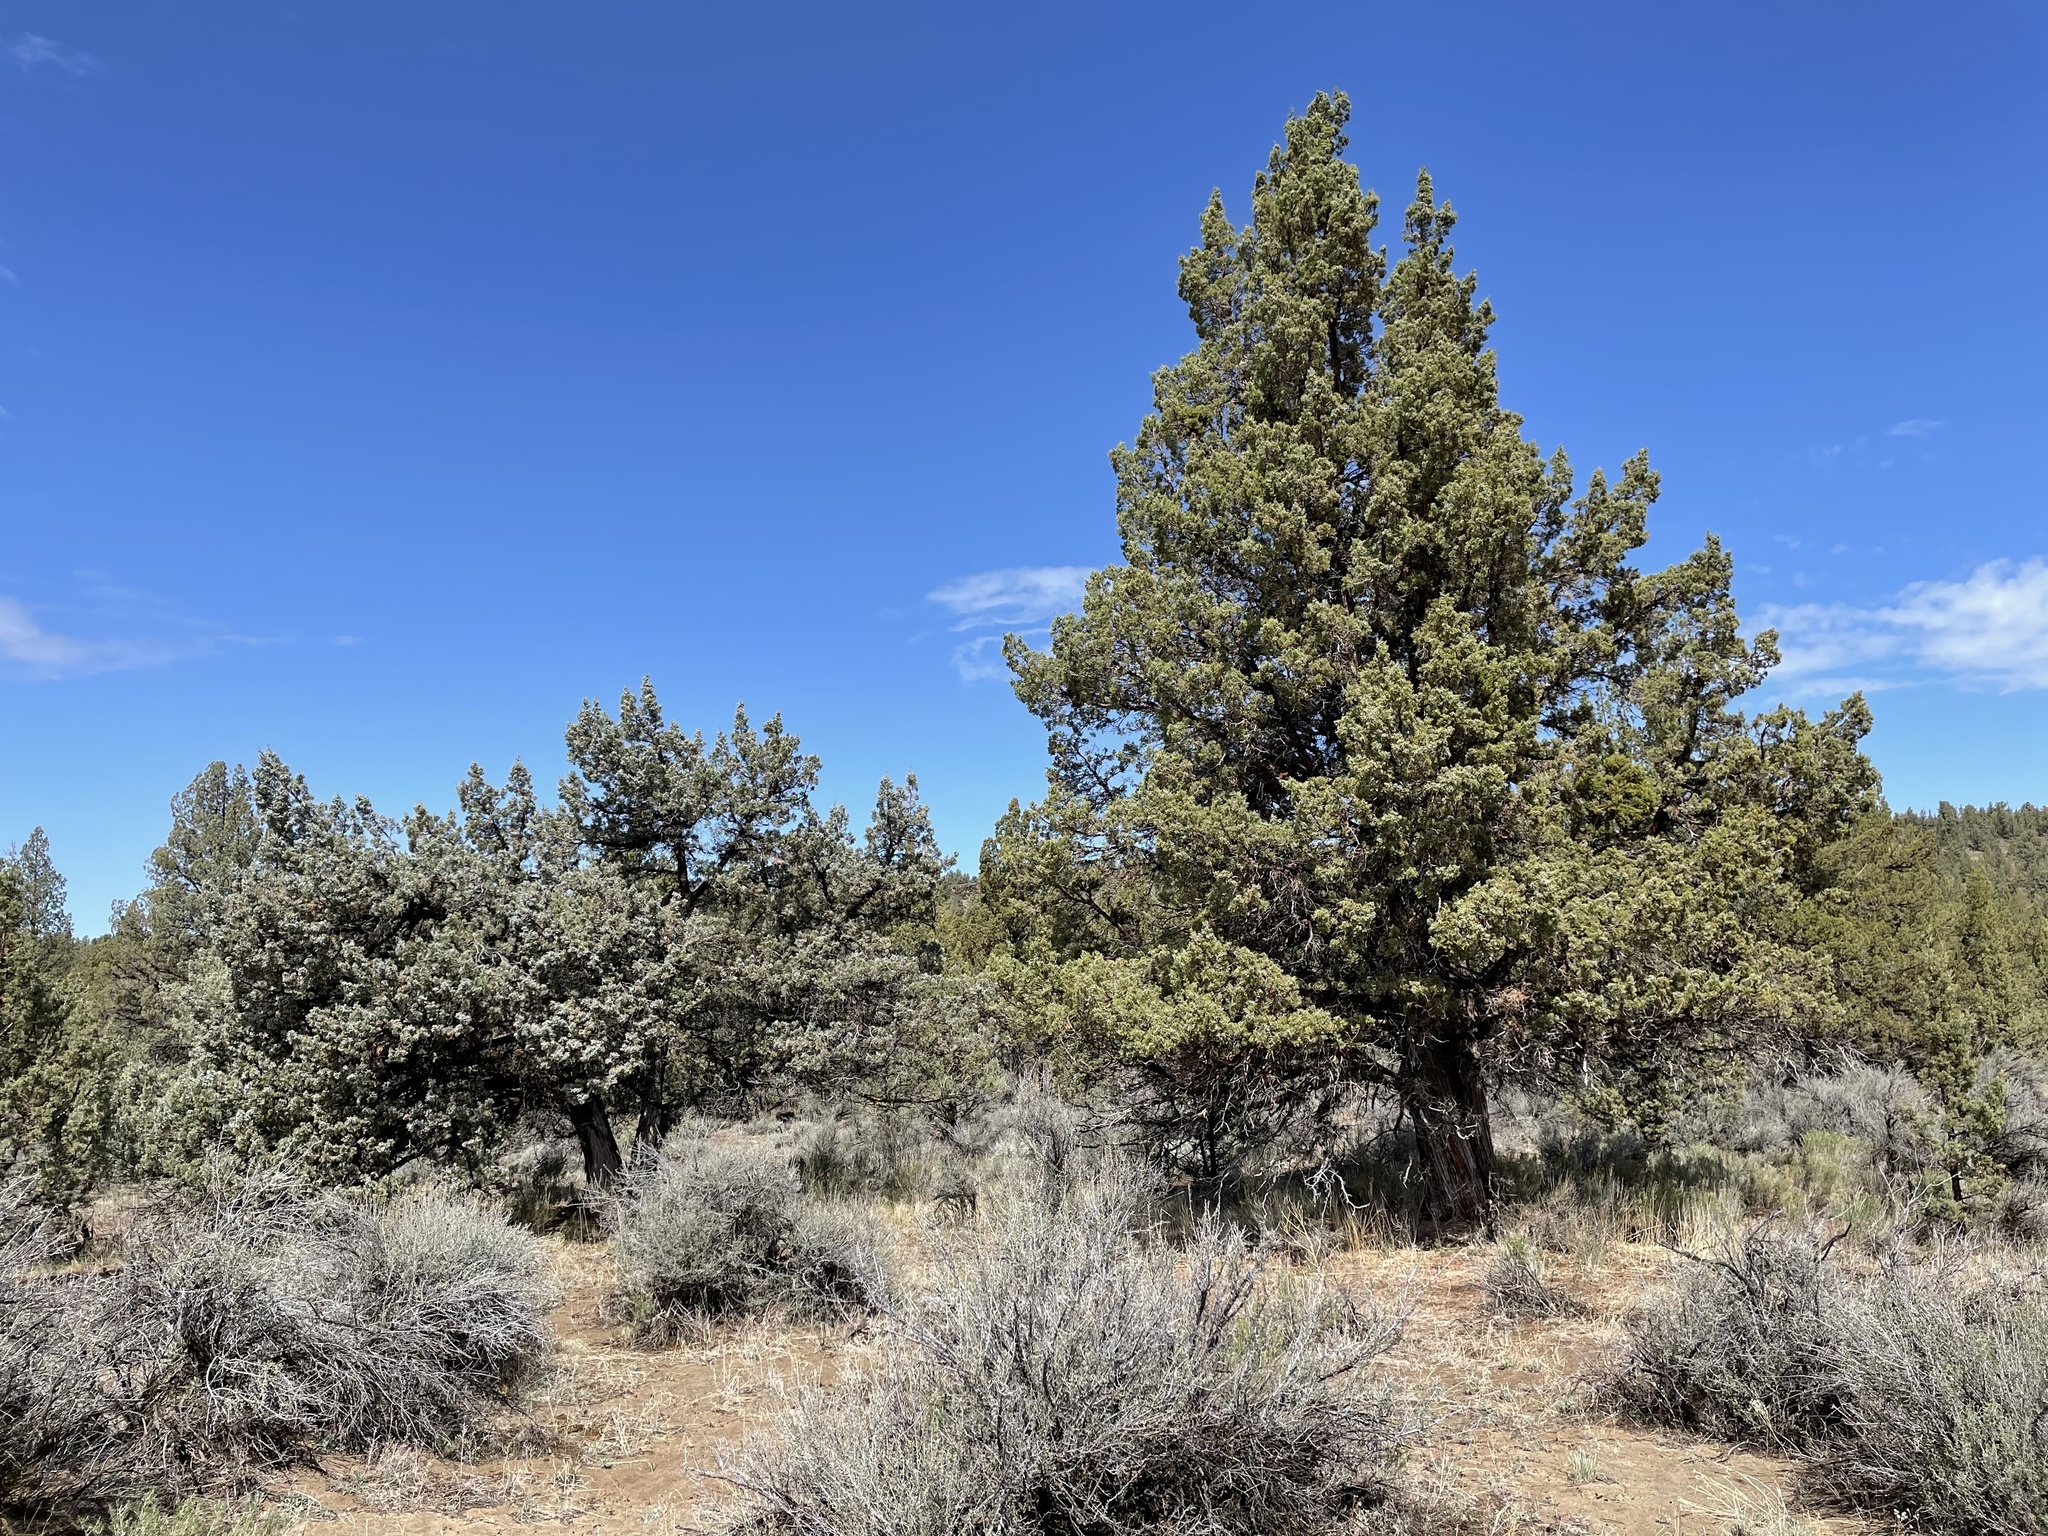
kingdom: Plantae
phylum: Tracheophyta
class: Pinopsida
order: Pinales
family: Cupressaceae
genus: Juniperus
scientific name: Juniperus occidentalis
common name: Western juniper
